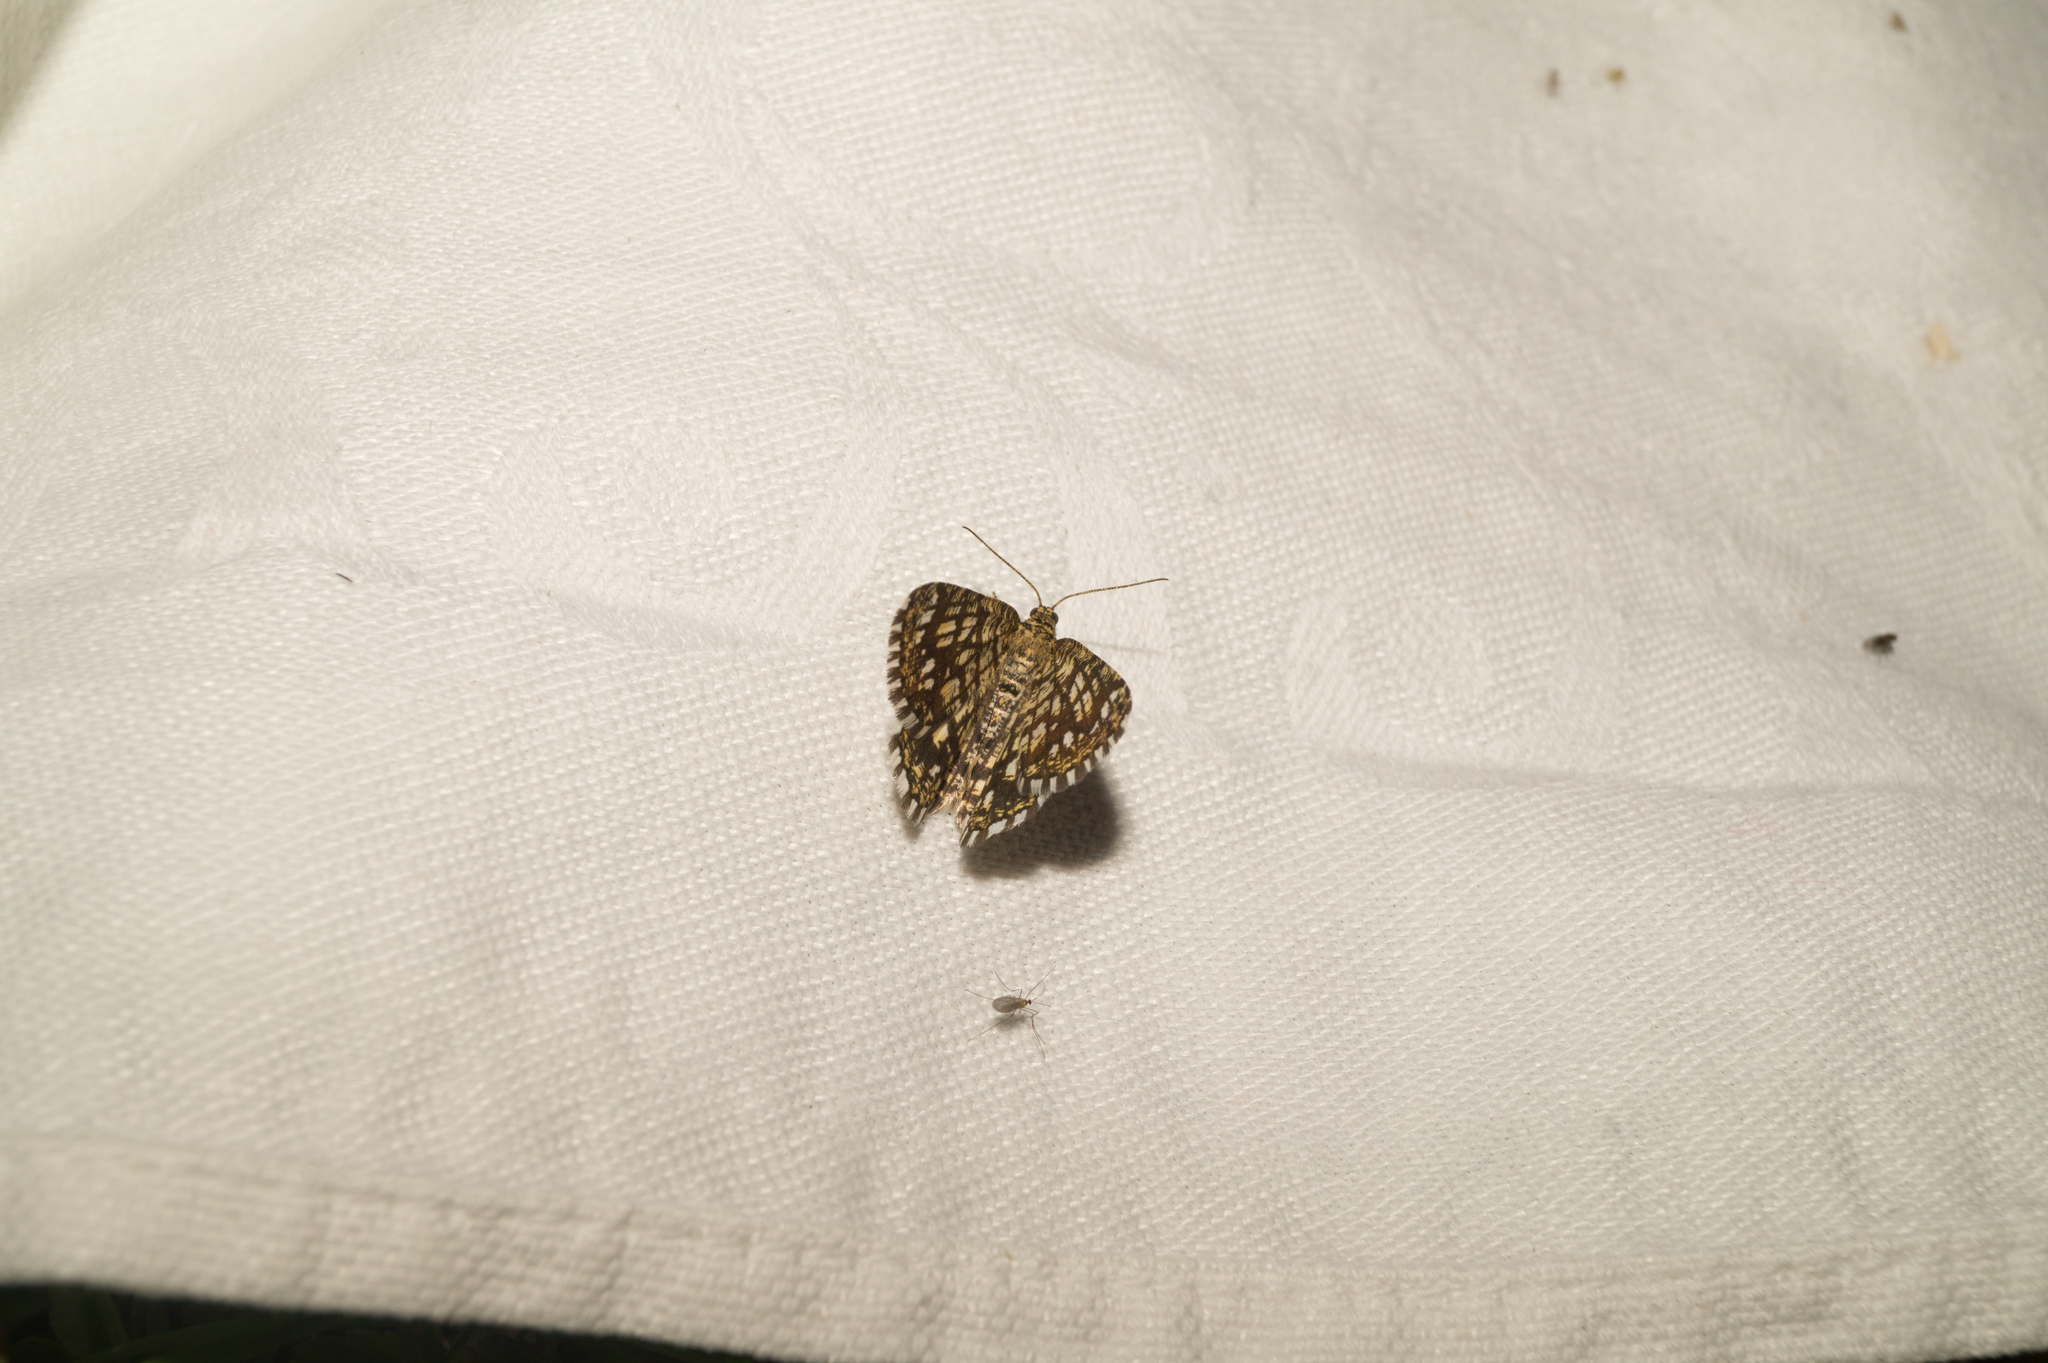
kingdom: Animalia
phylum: Arthropoda
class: Insecta
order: Lepidoptera
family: Geometridae
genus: Chiasmia
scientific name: Chiasmia clathrata
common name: Latticed heath
